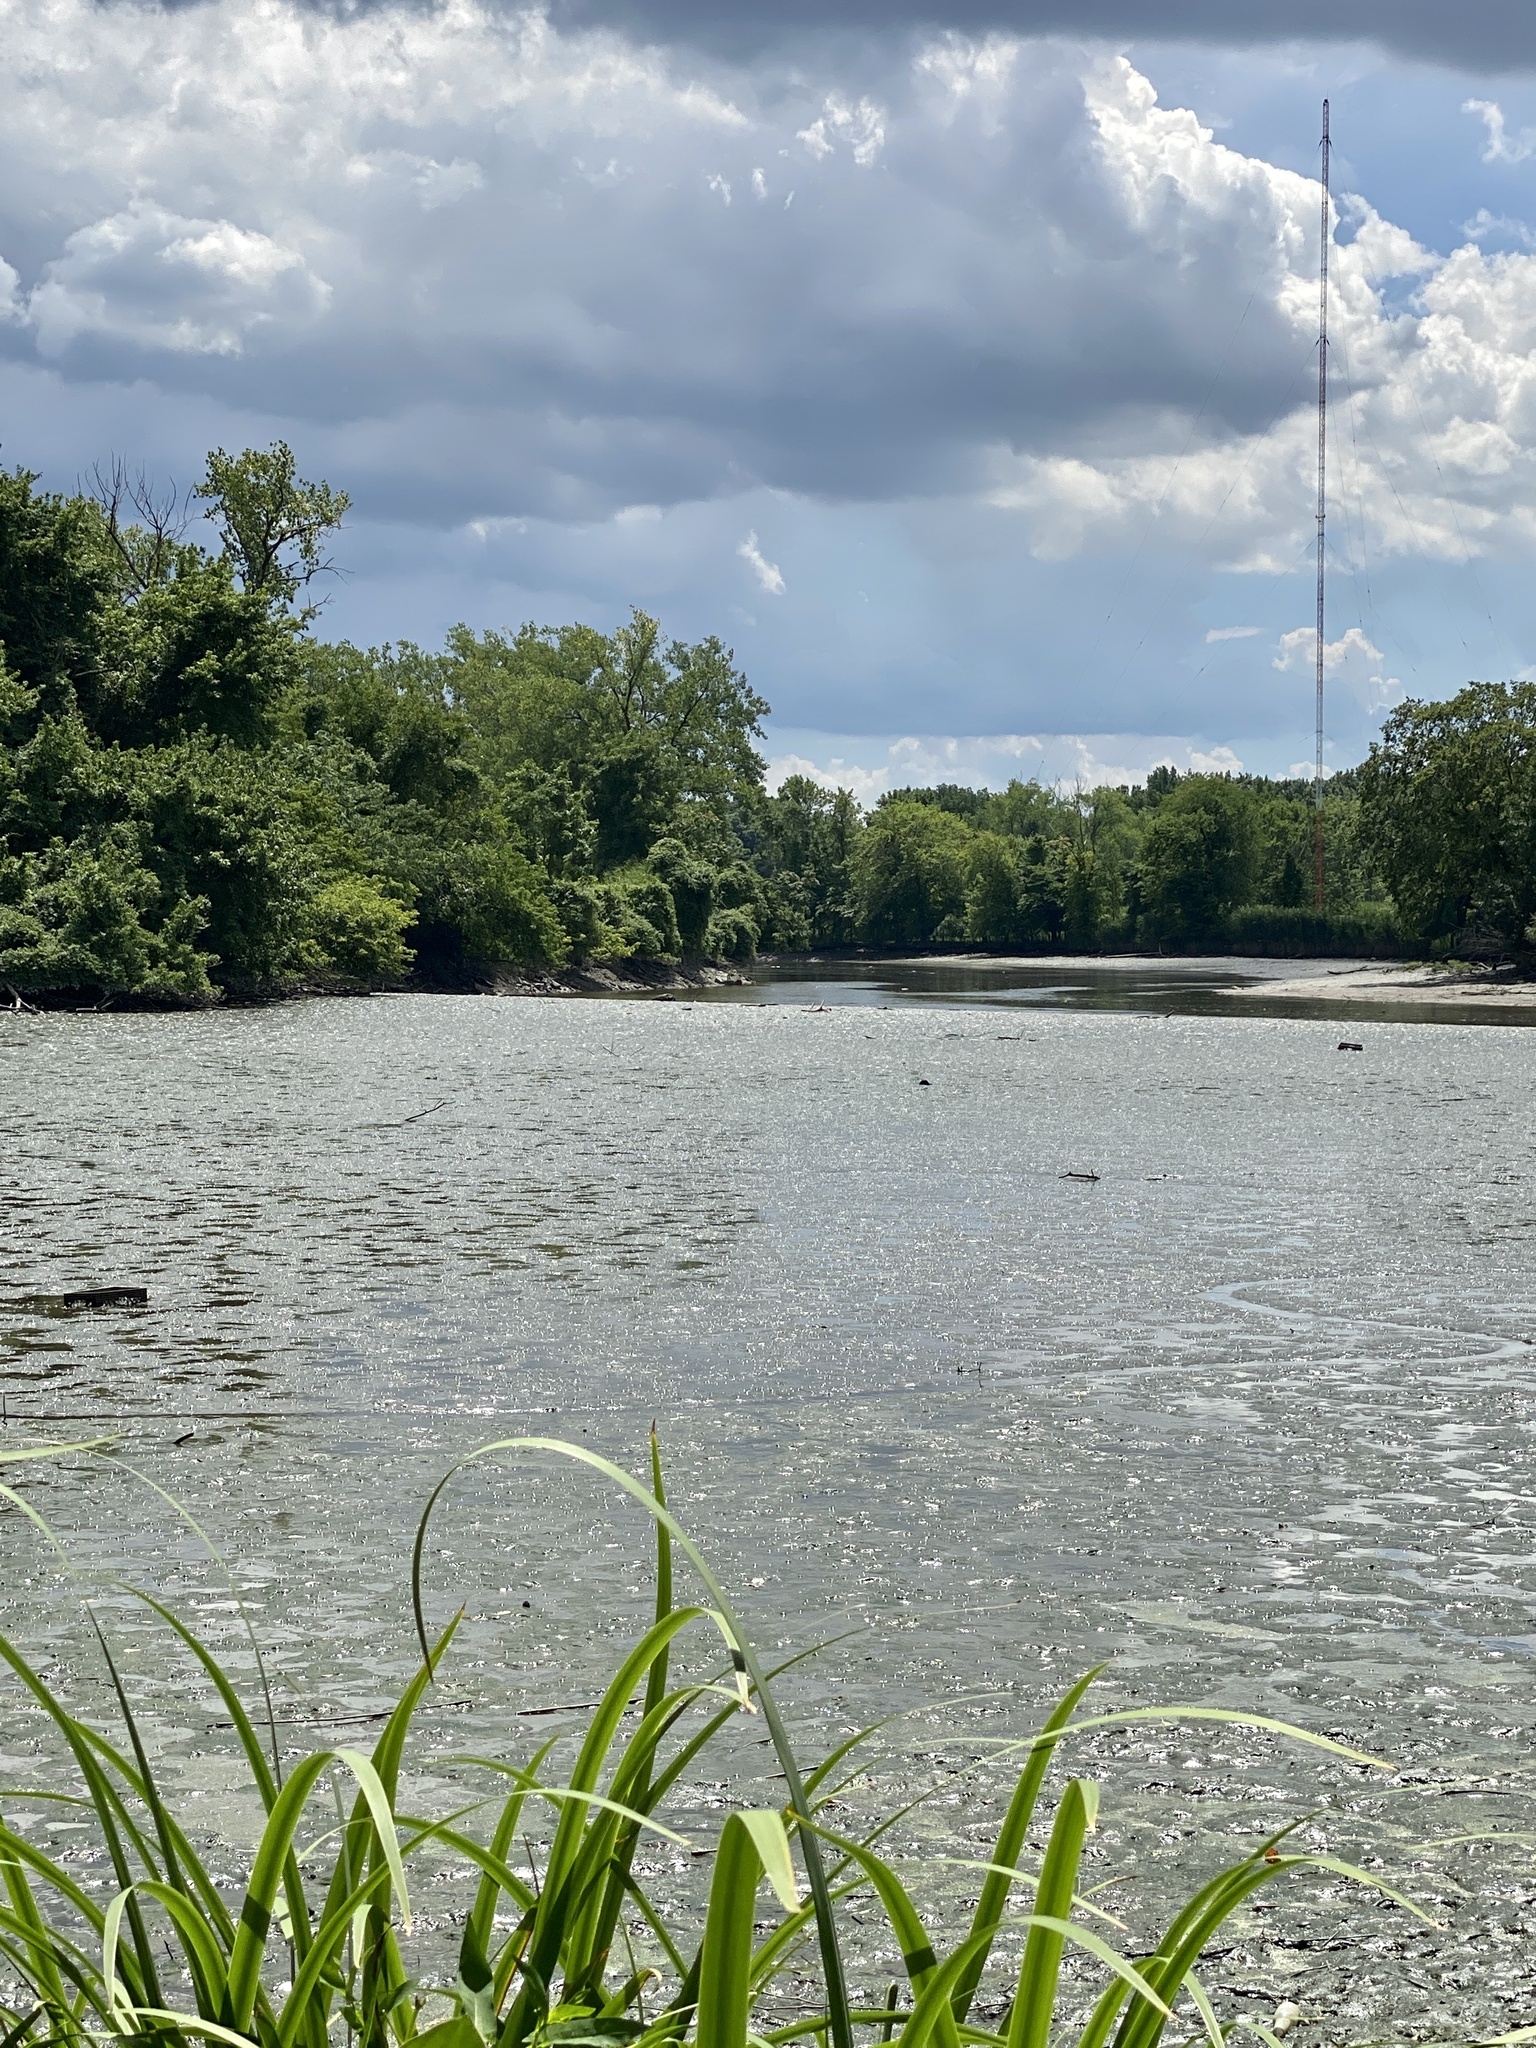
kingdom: Plantae
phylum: Tracheophyta
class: Magnoliopsida
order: Malvales
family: Malvaceae
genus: Hibiscus
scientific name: Hibiscus moscheutos
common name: Common rose-mallow
